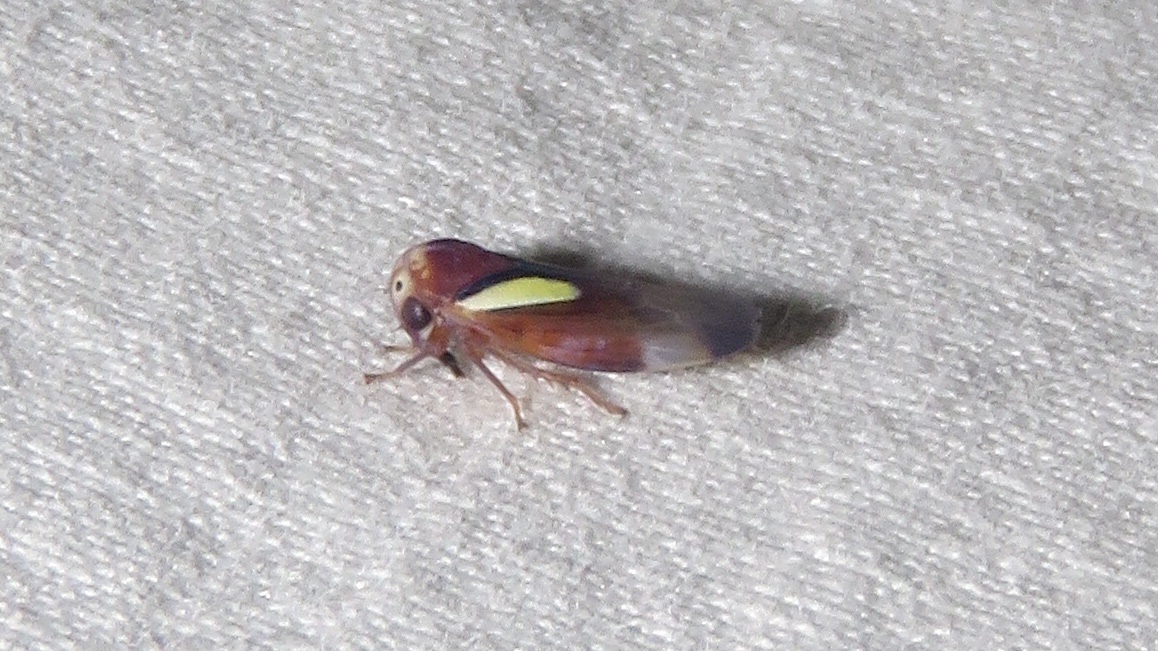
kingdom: Animalia
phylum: Arthropoda
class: Insecta
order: Hemiptera
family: Cicadellidae
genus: Balcanocerus
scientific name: Balcanocerus provancheri
